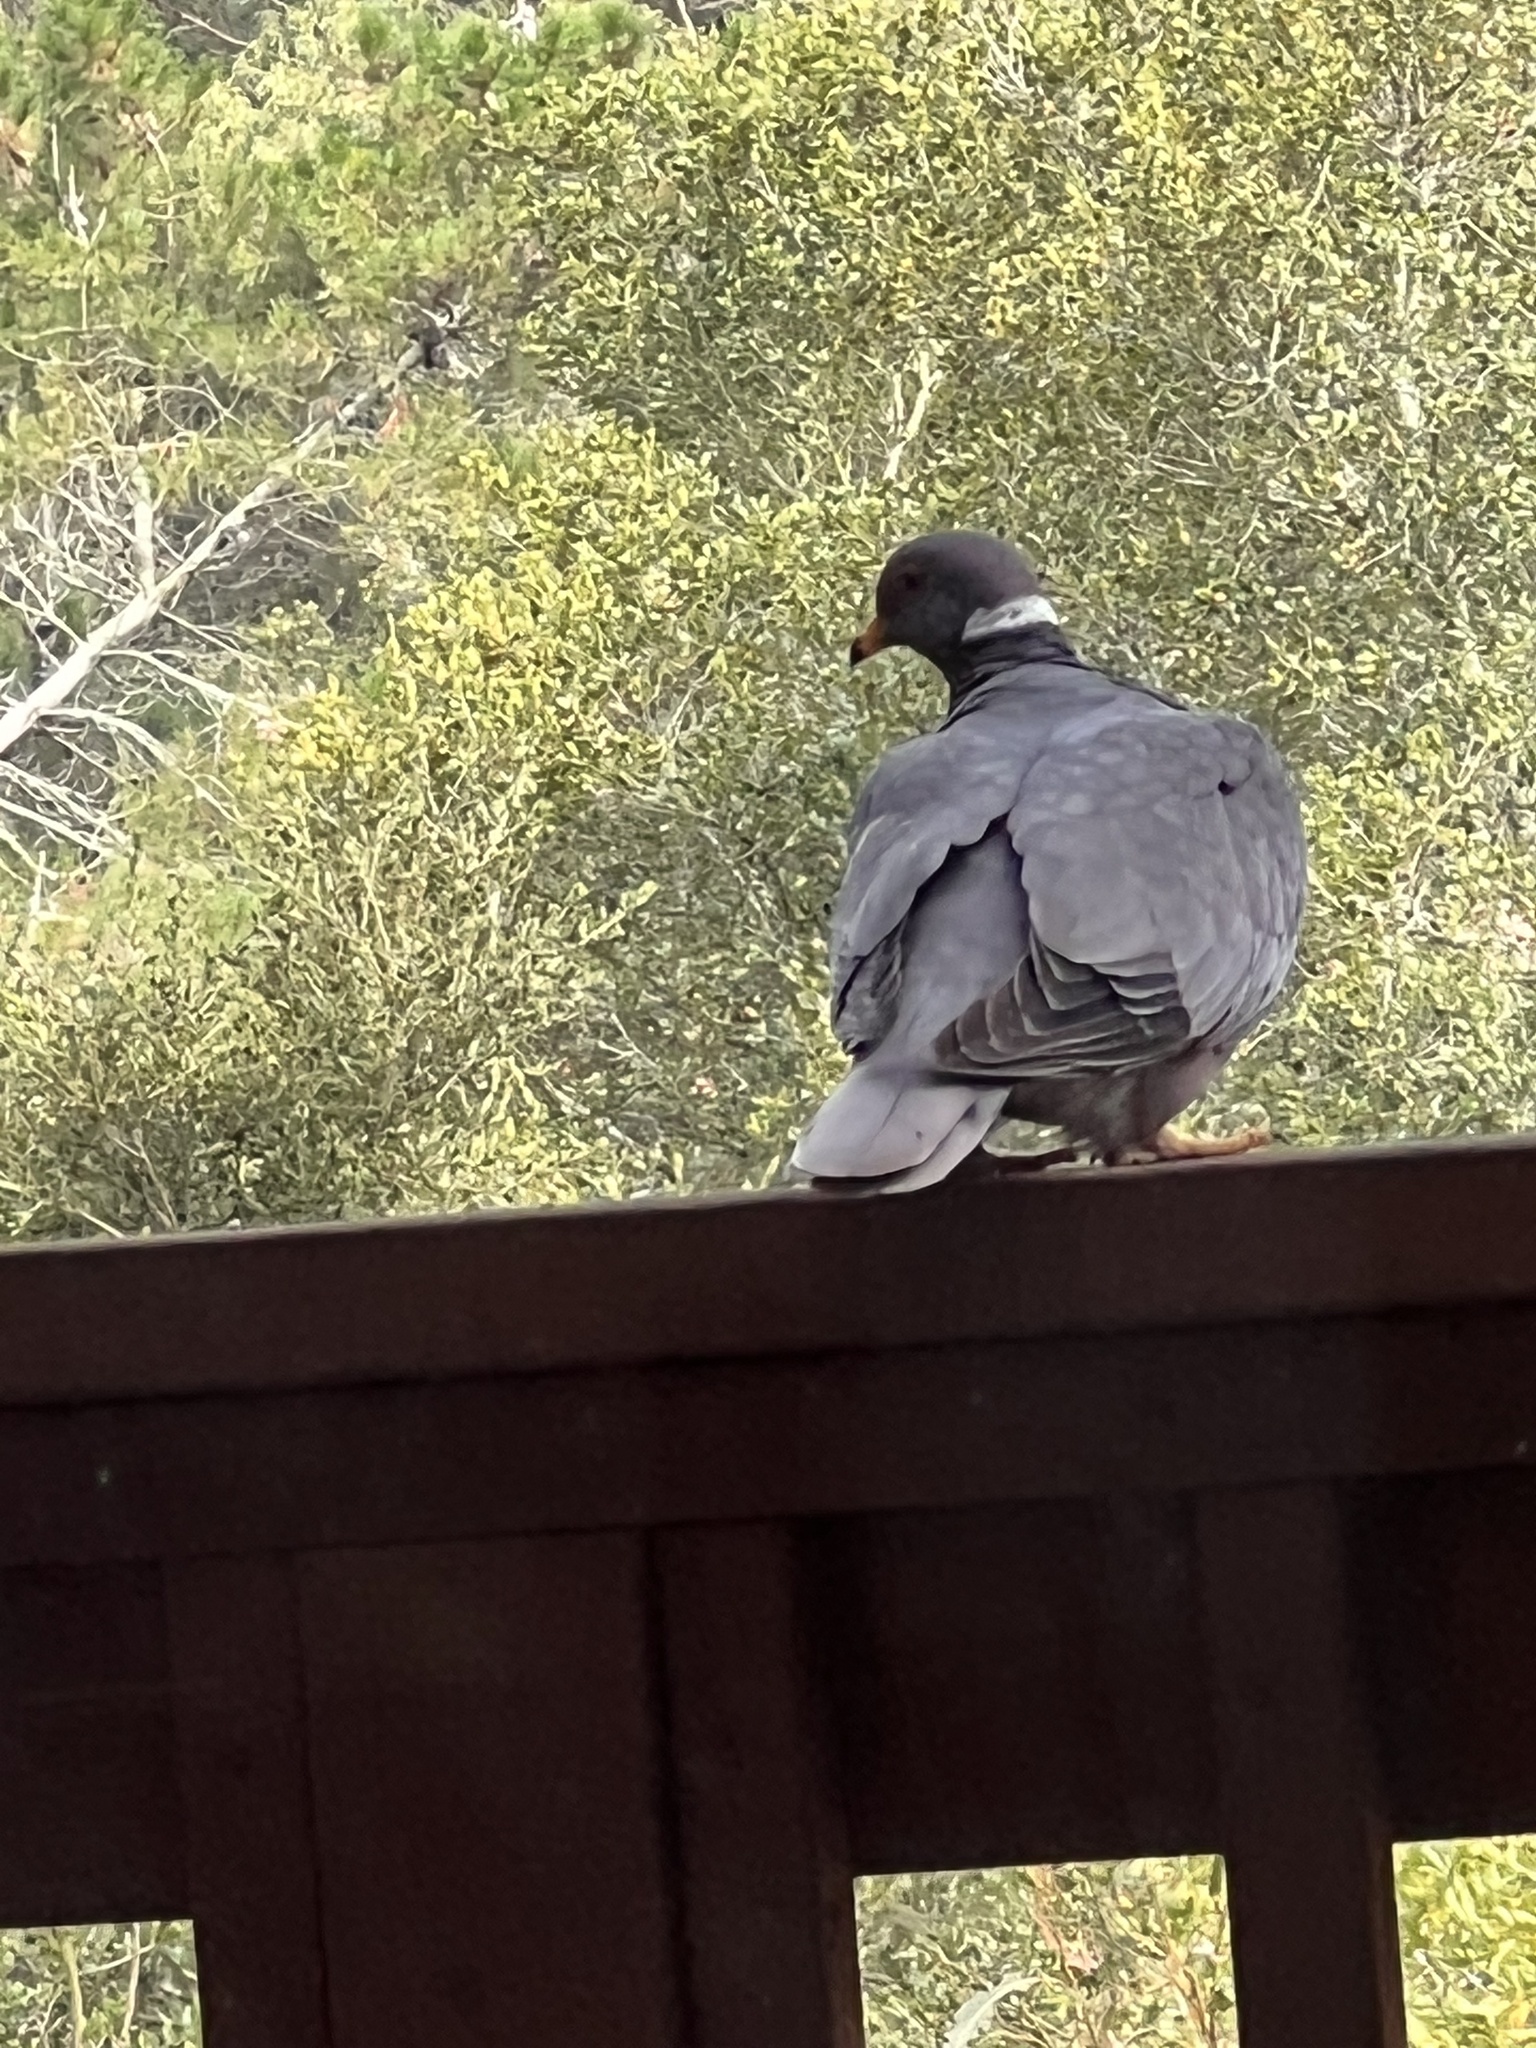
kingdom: Animalia
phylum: Chordata
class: Aves
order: Columbiformes
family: Columbidae
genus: Patagioenas
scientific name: Patagioenas fasciata
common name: Band-tailed pigeon
